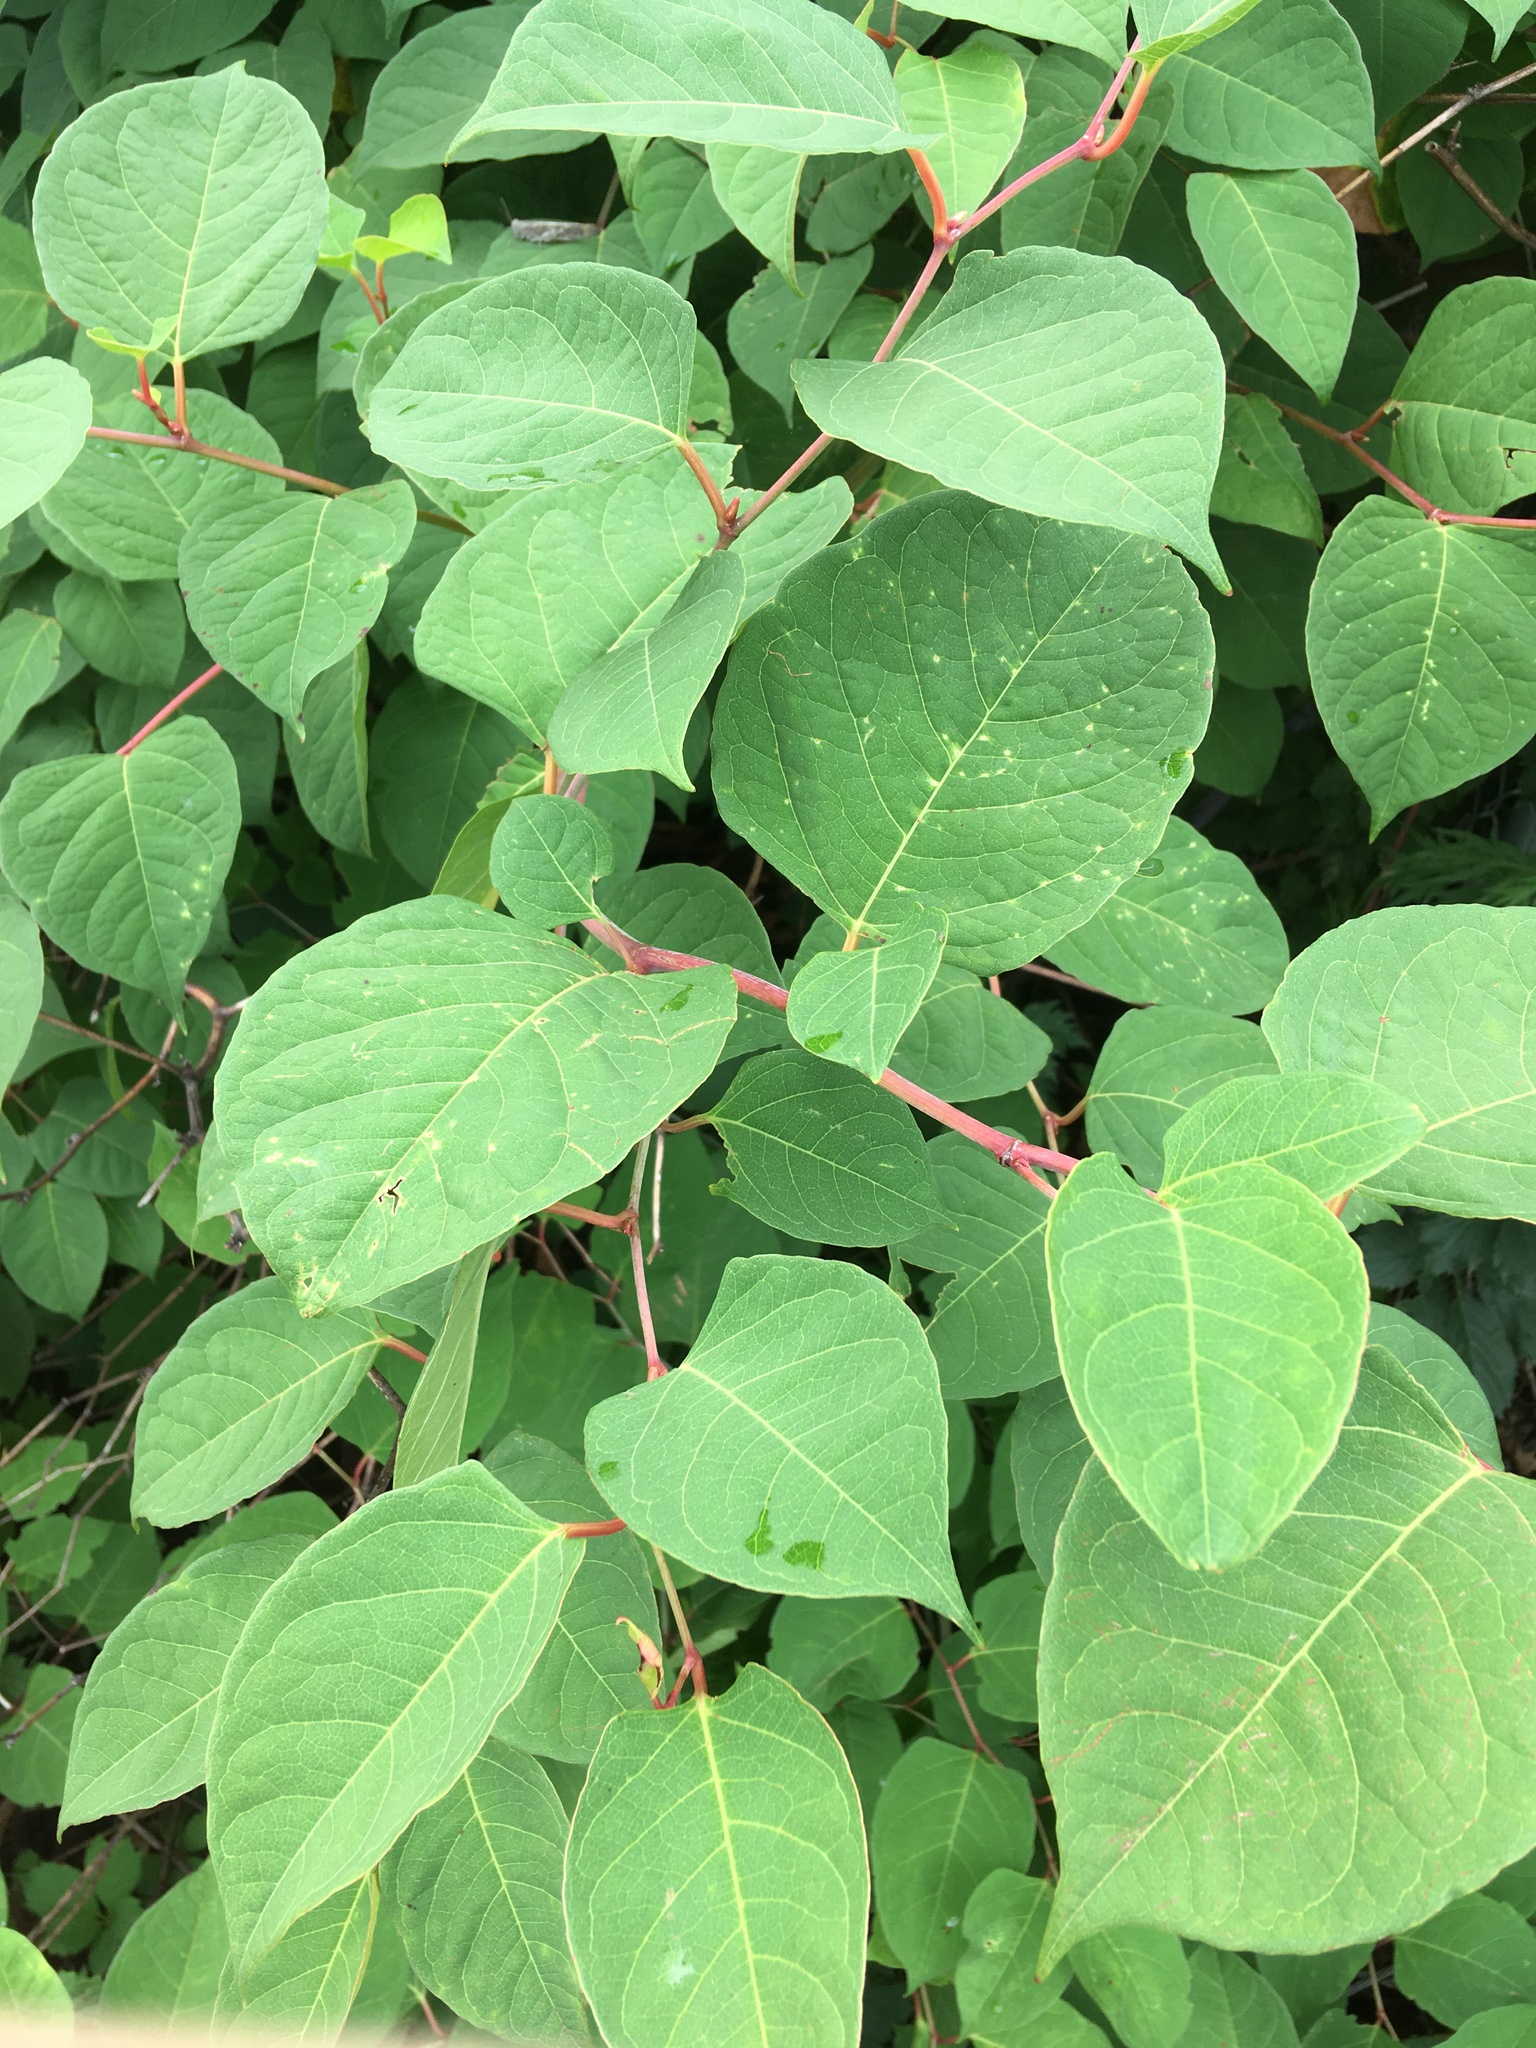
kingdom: Plantae
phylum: Tracheophyta
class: Magnoliopsida
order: Caryophyllales
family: Polygonaceae
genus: Reynoutria
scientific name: Reynoutria japonica
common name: Japanese knotweed
